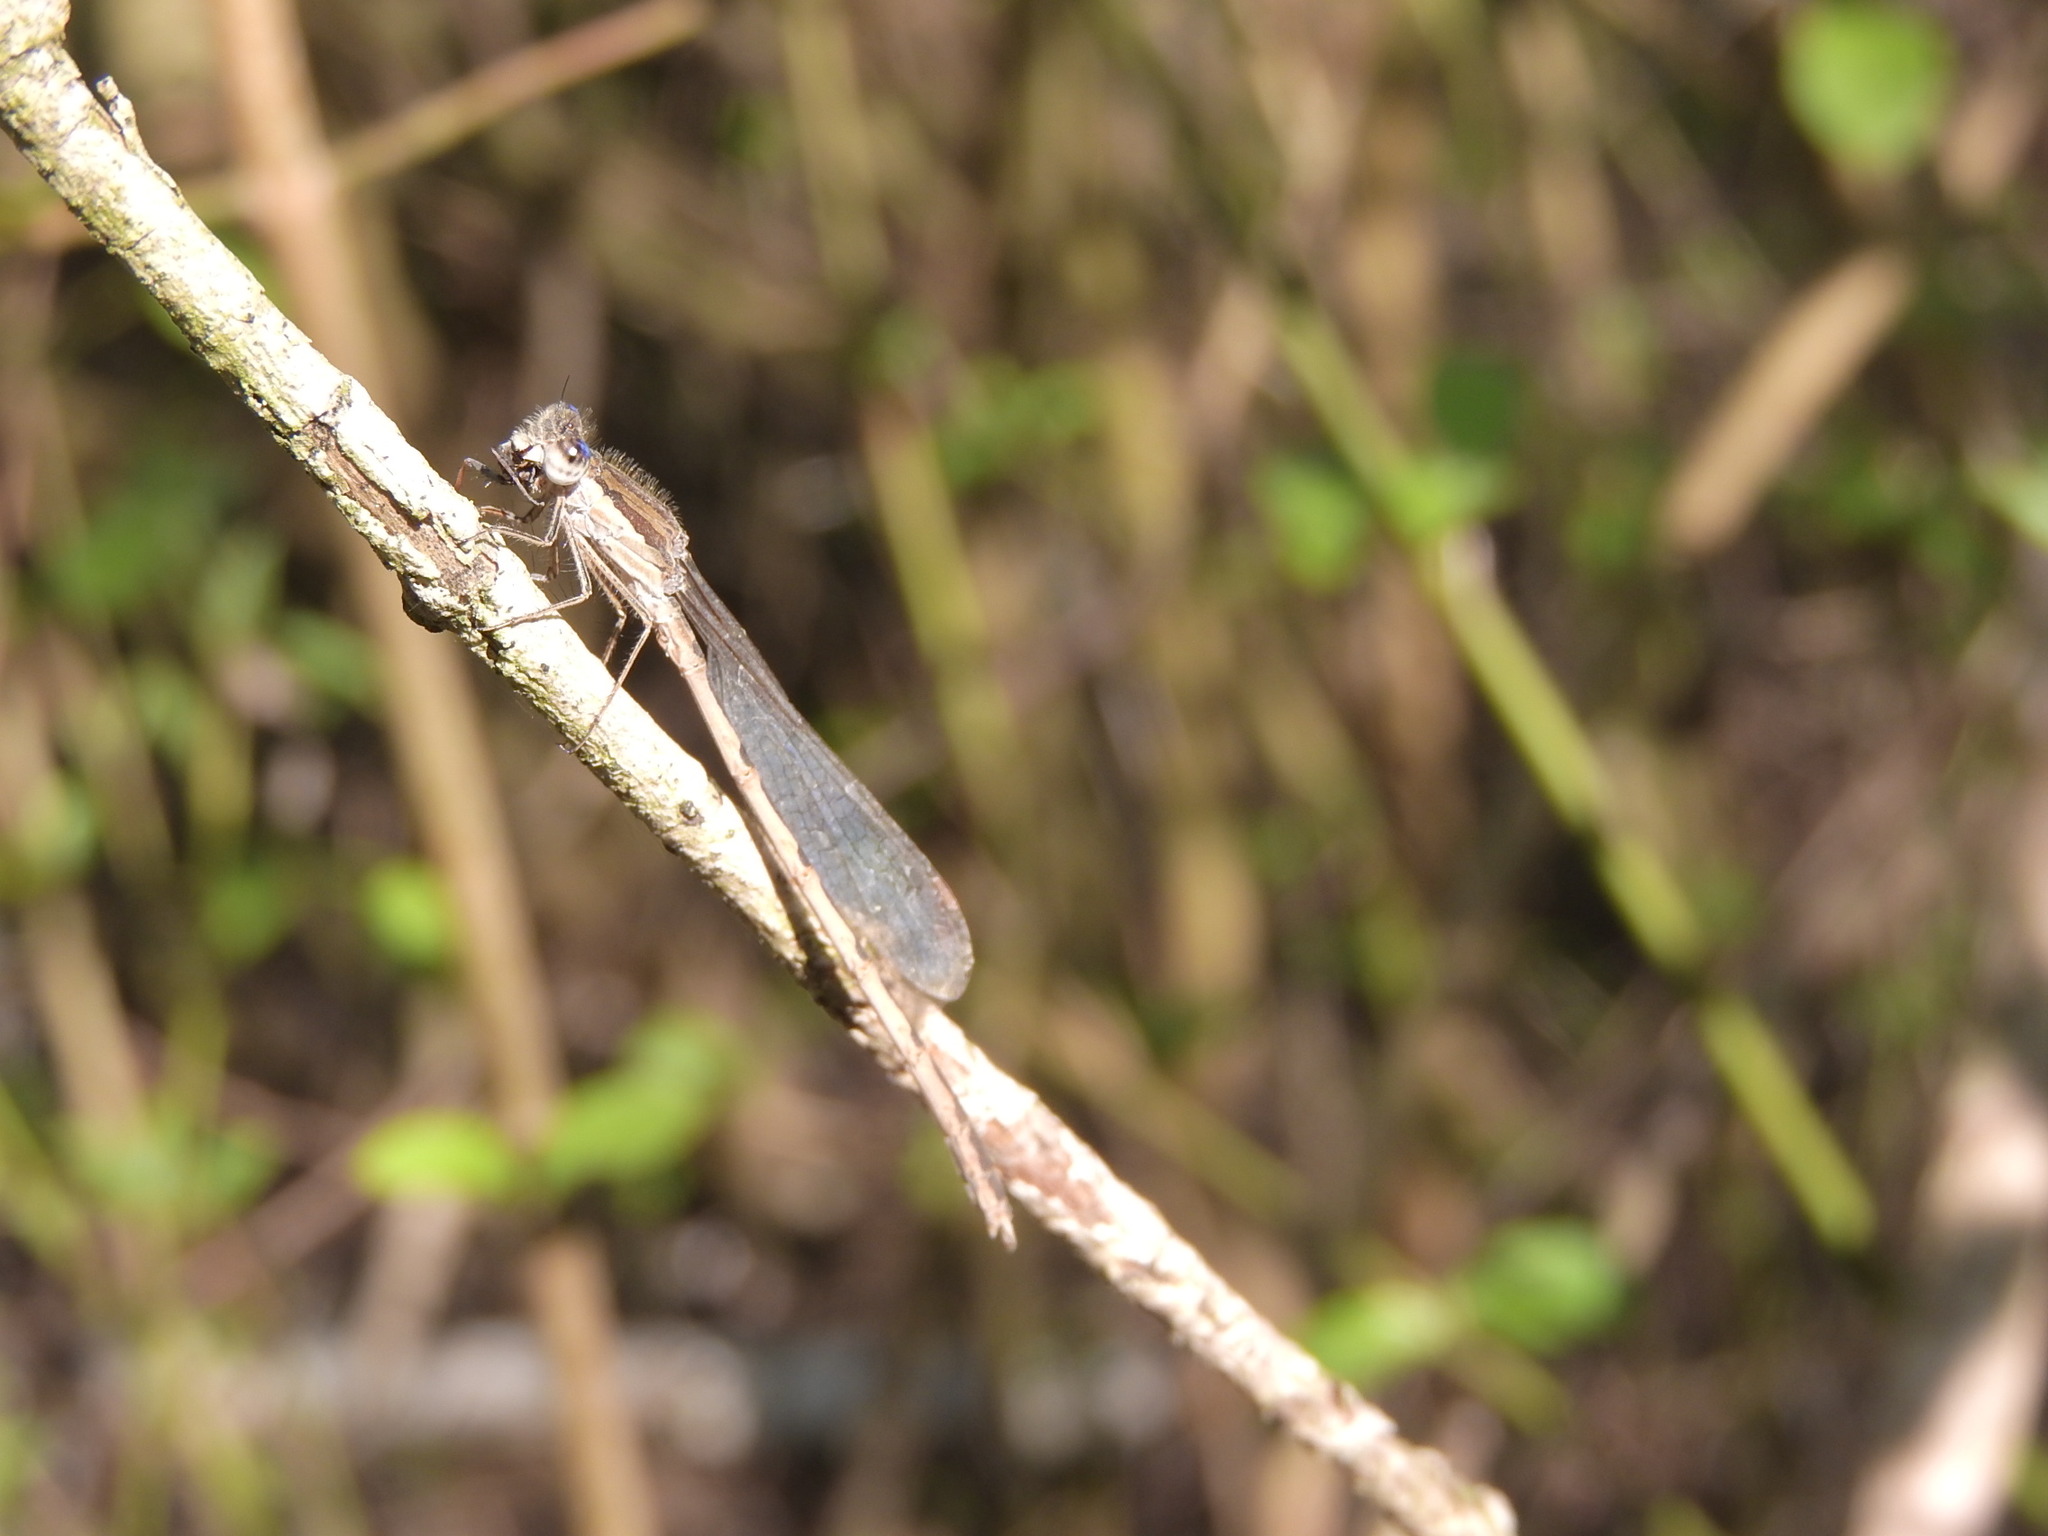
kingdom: Animalia
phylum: Arthropoda
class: Insecta
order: Odonata
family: Lestidae
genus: Sympecma
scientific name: Sympecma fusca
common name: Common winter damsel
